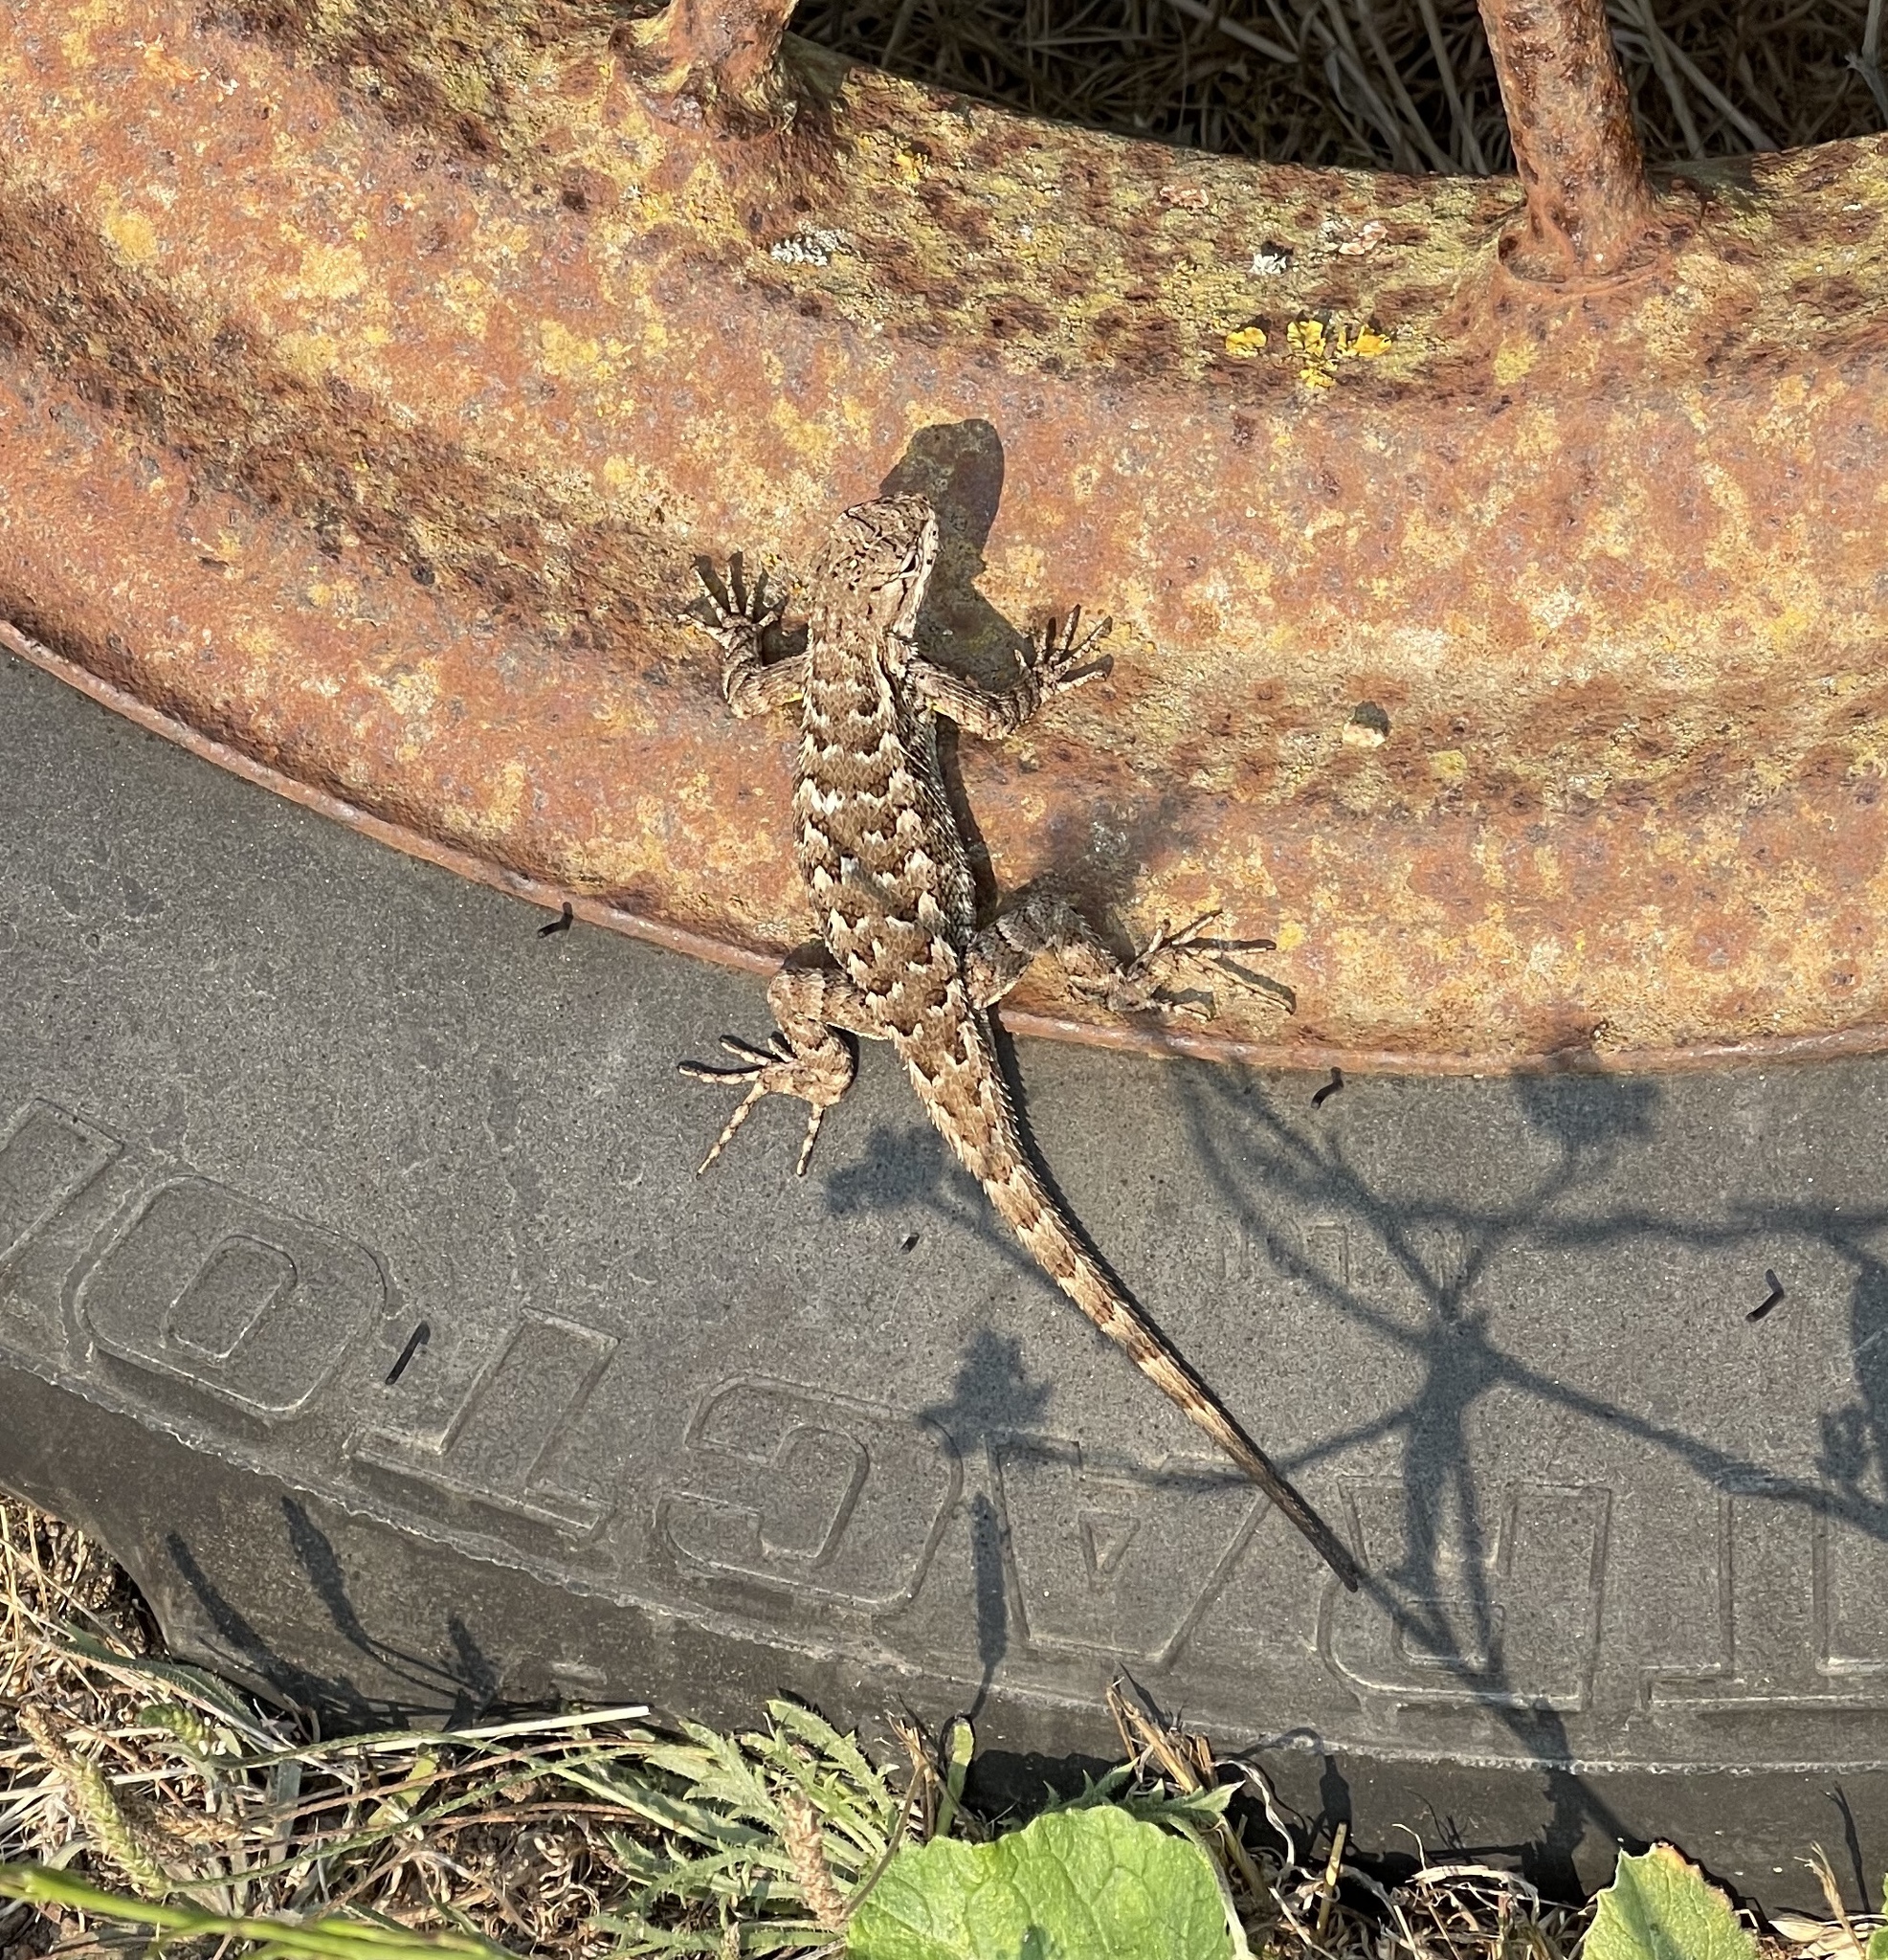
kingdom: Animalia
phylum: Chordata
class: Squamata
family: Phrynosomatidae
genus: Sceloporus
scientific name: Sceloporus occidentalis
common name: Western fence lizard
